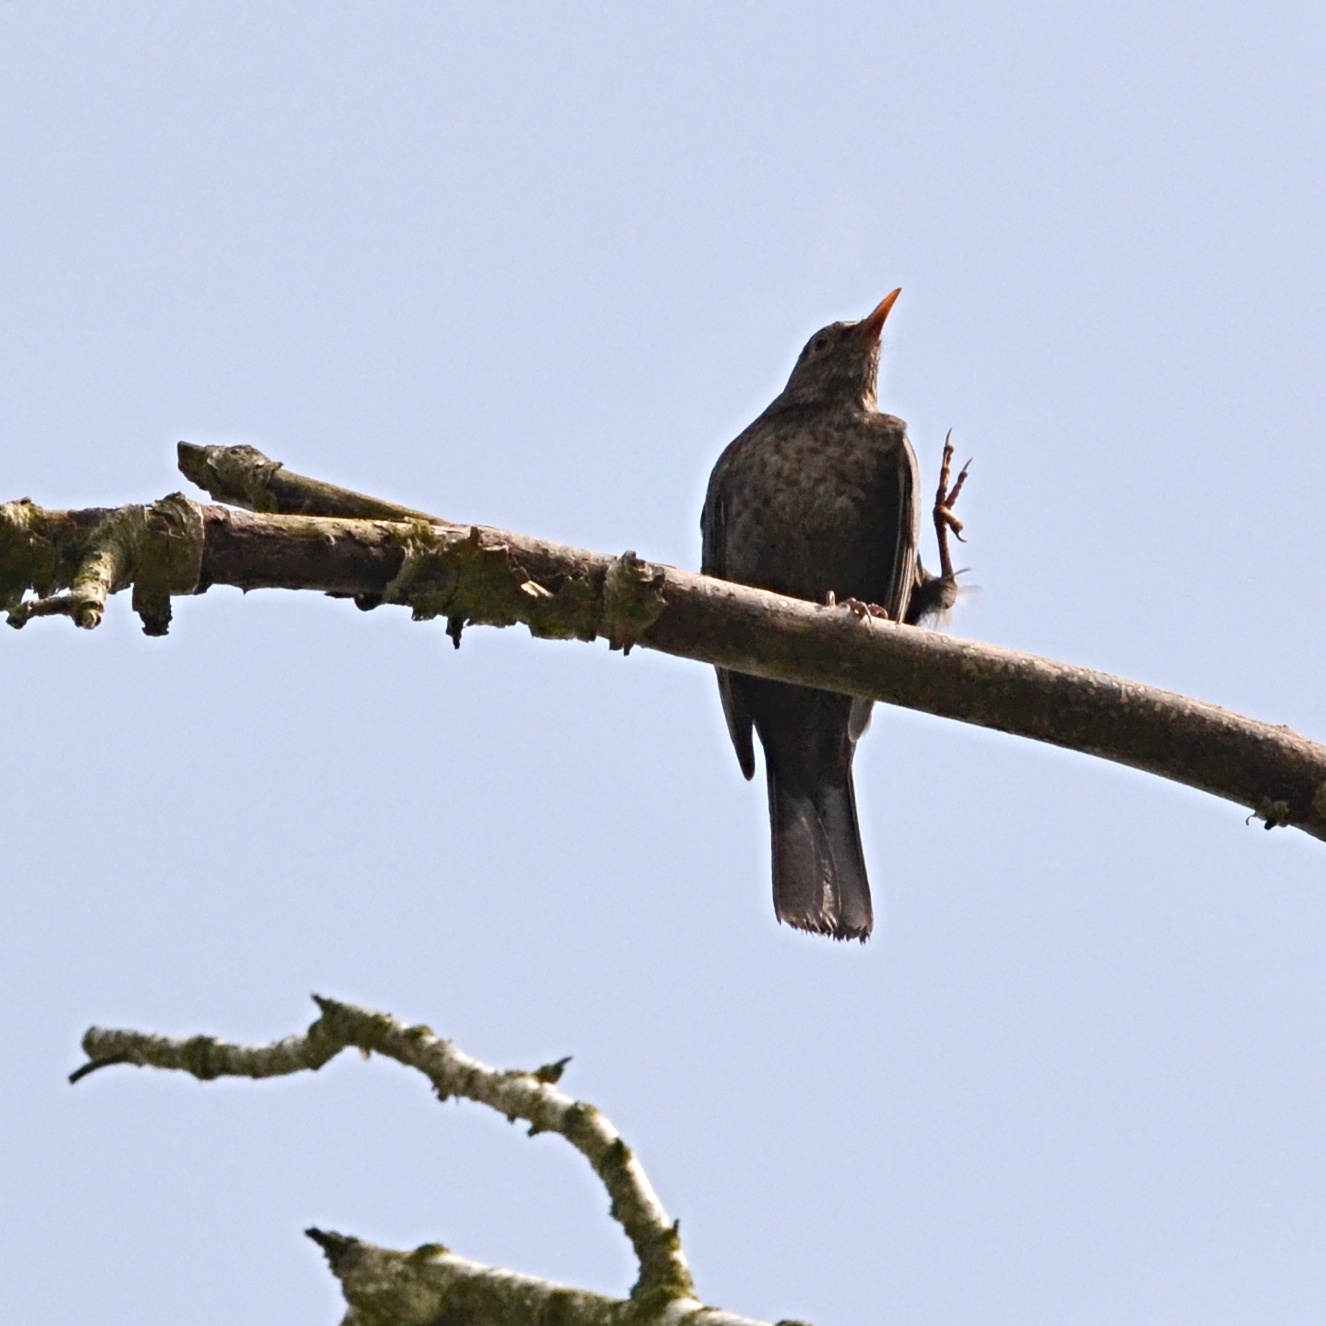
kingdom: Animalia
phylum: Chordata
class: Aves
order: Passeriformes
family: Turdidae
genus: Turdus
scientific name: Turdus merula
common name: Common blackbird
